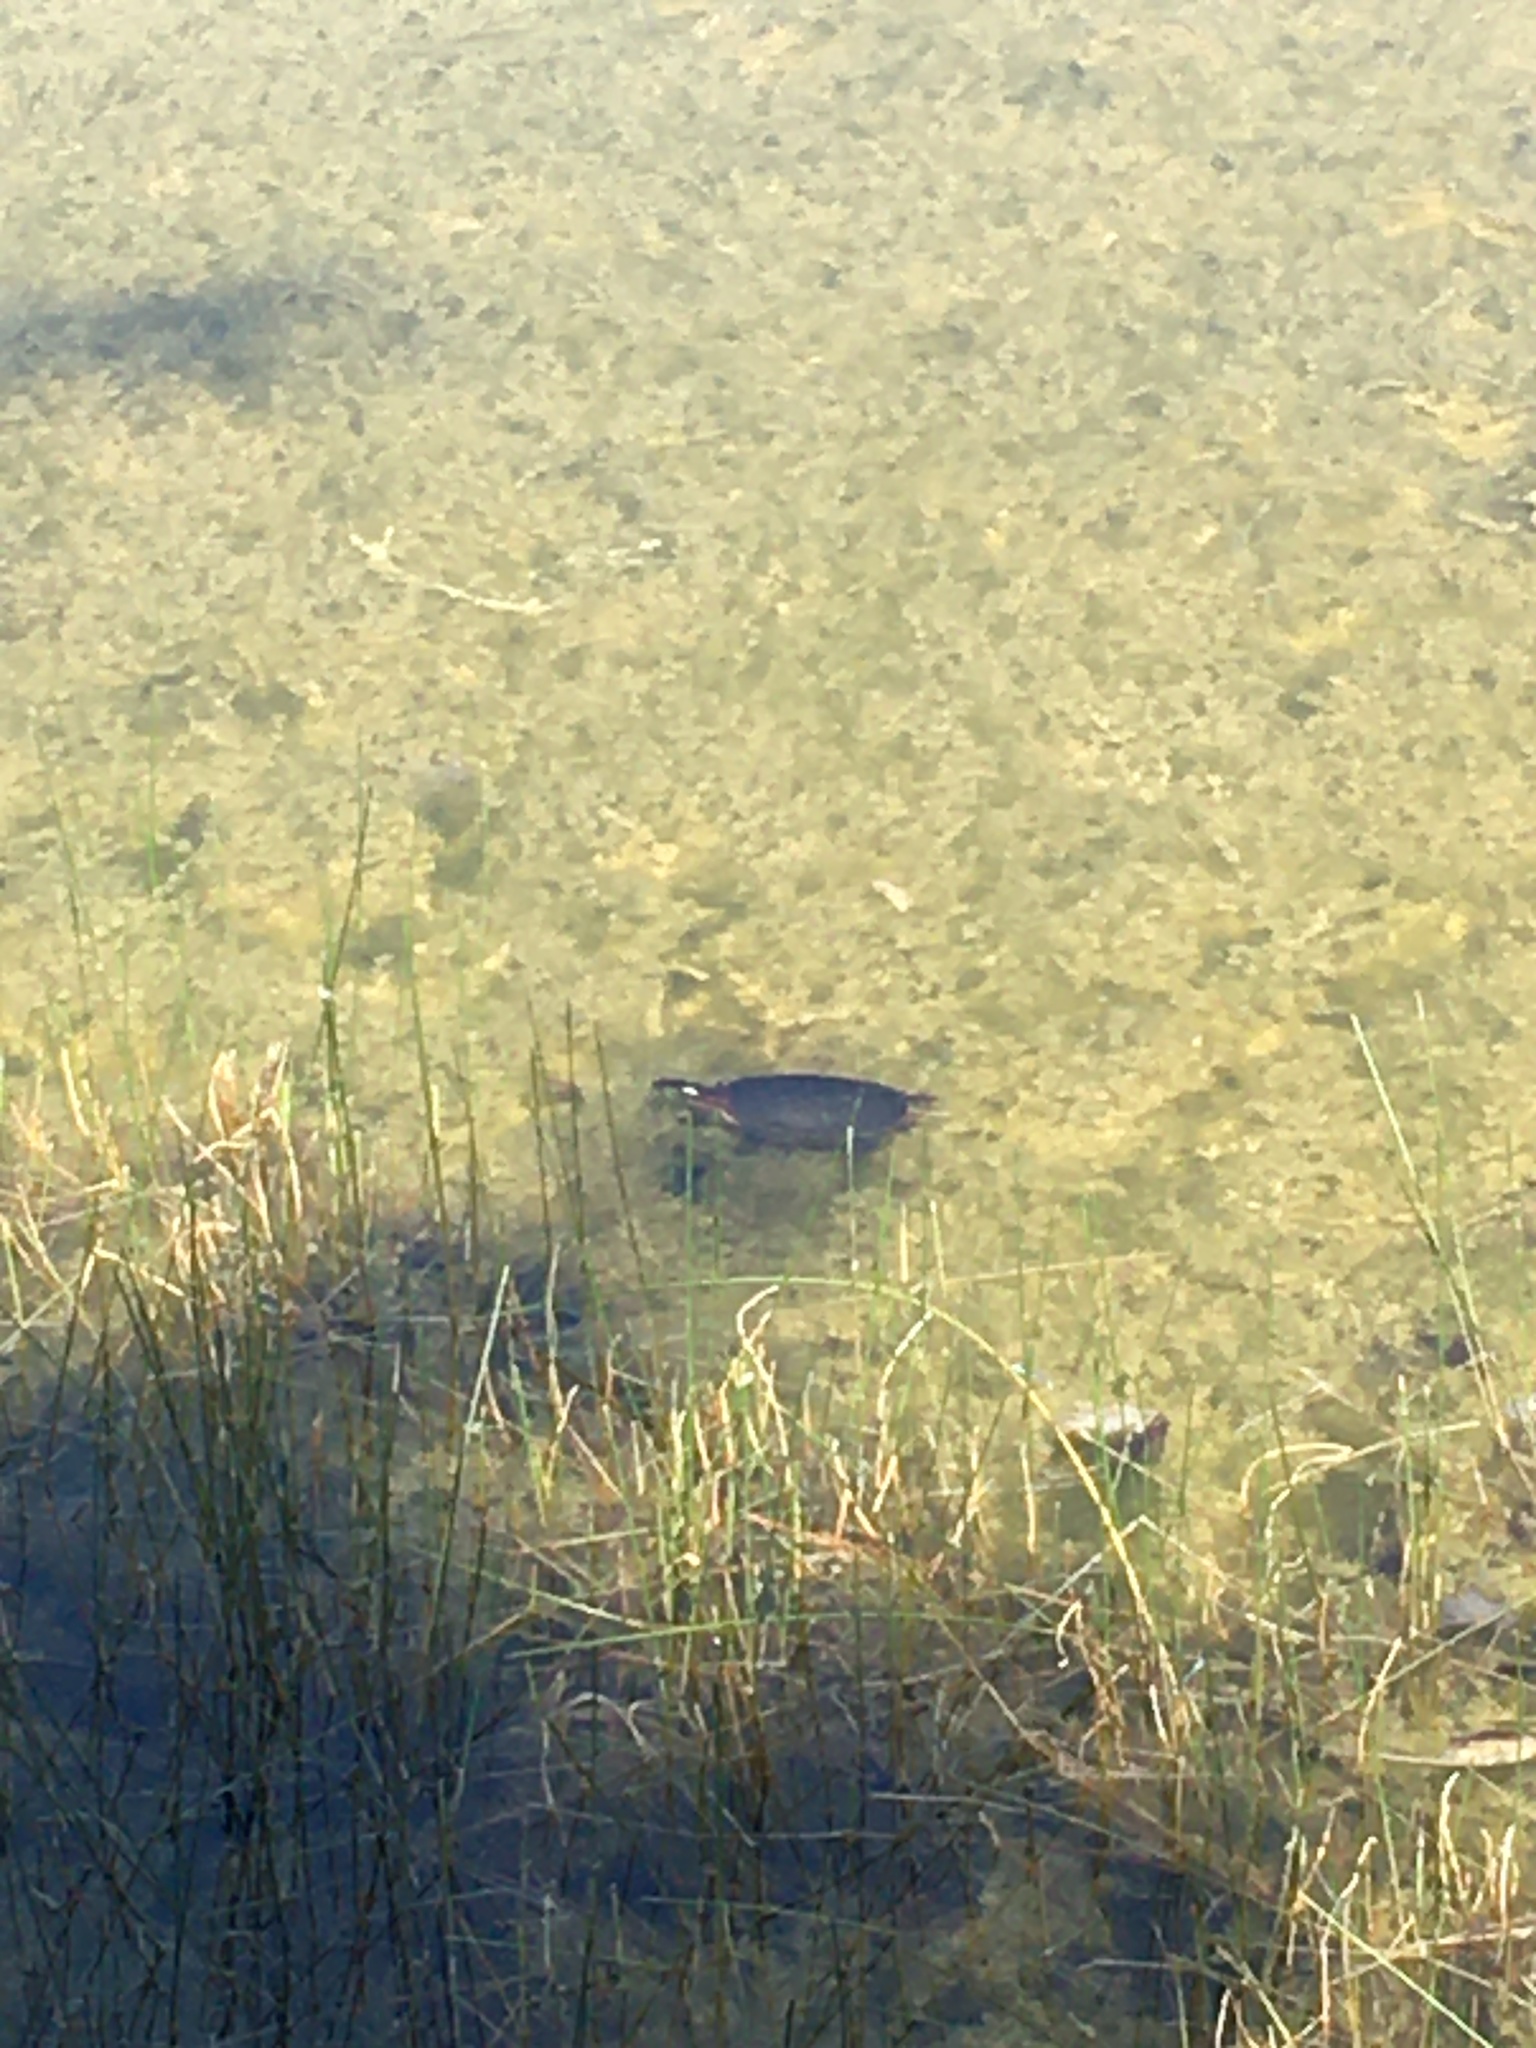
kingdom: Animalia
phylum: Chordata
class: Testudines
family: Emydidae
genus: Chrysemys
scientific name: Chrysemys picta
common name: Painted turtle
